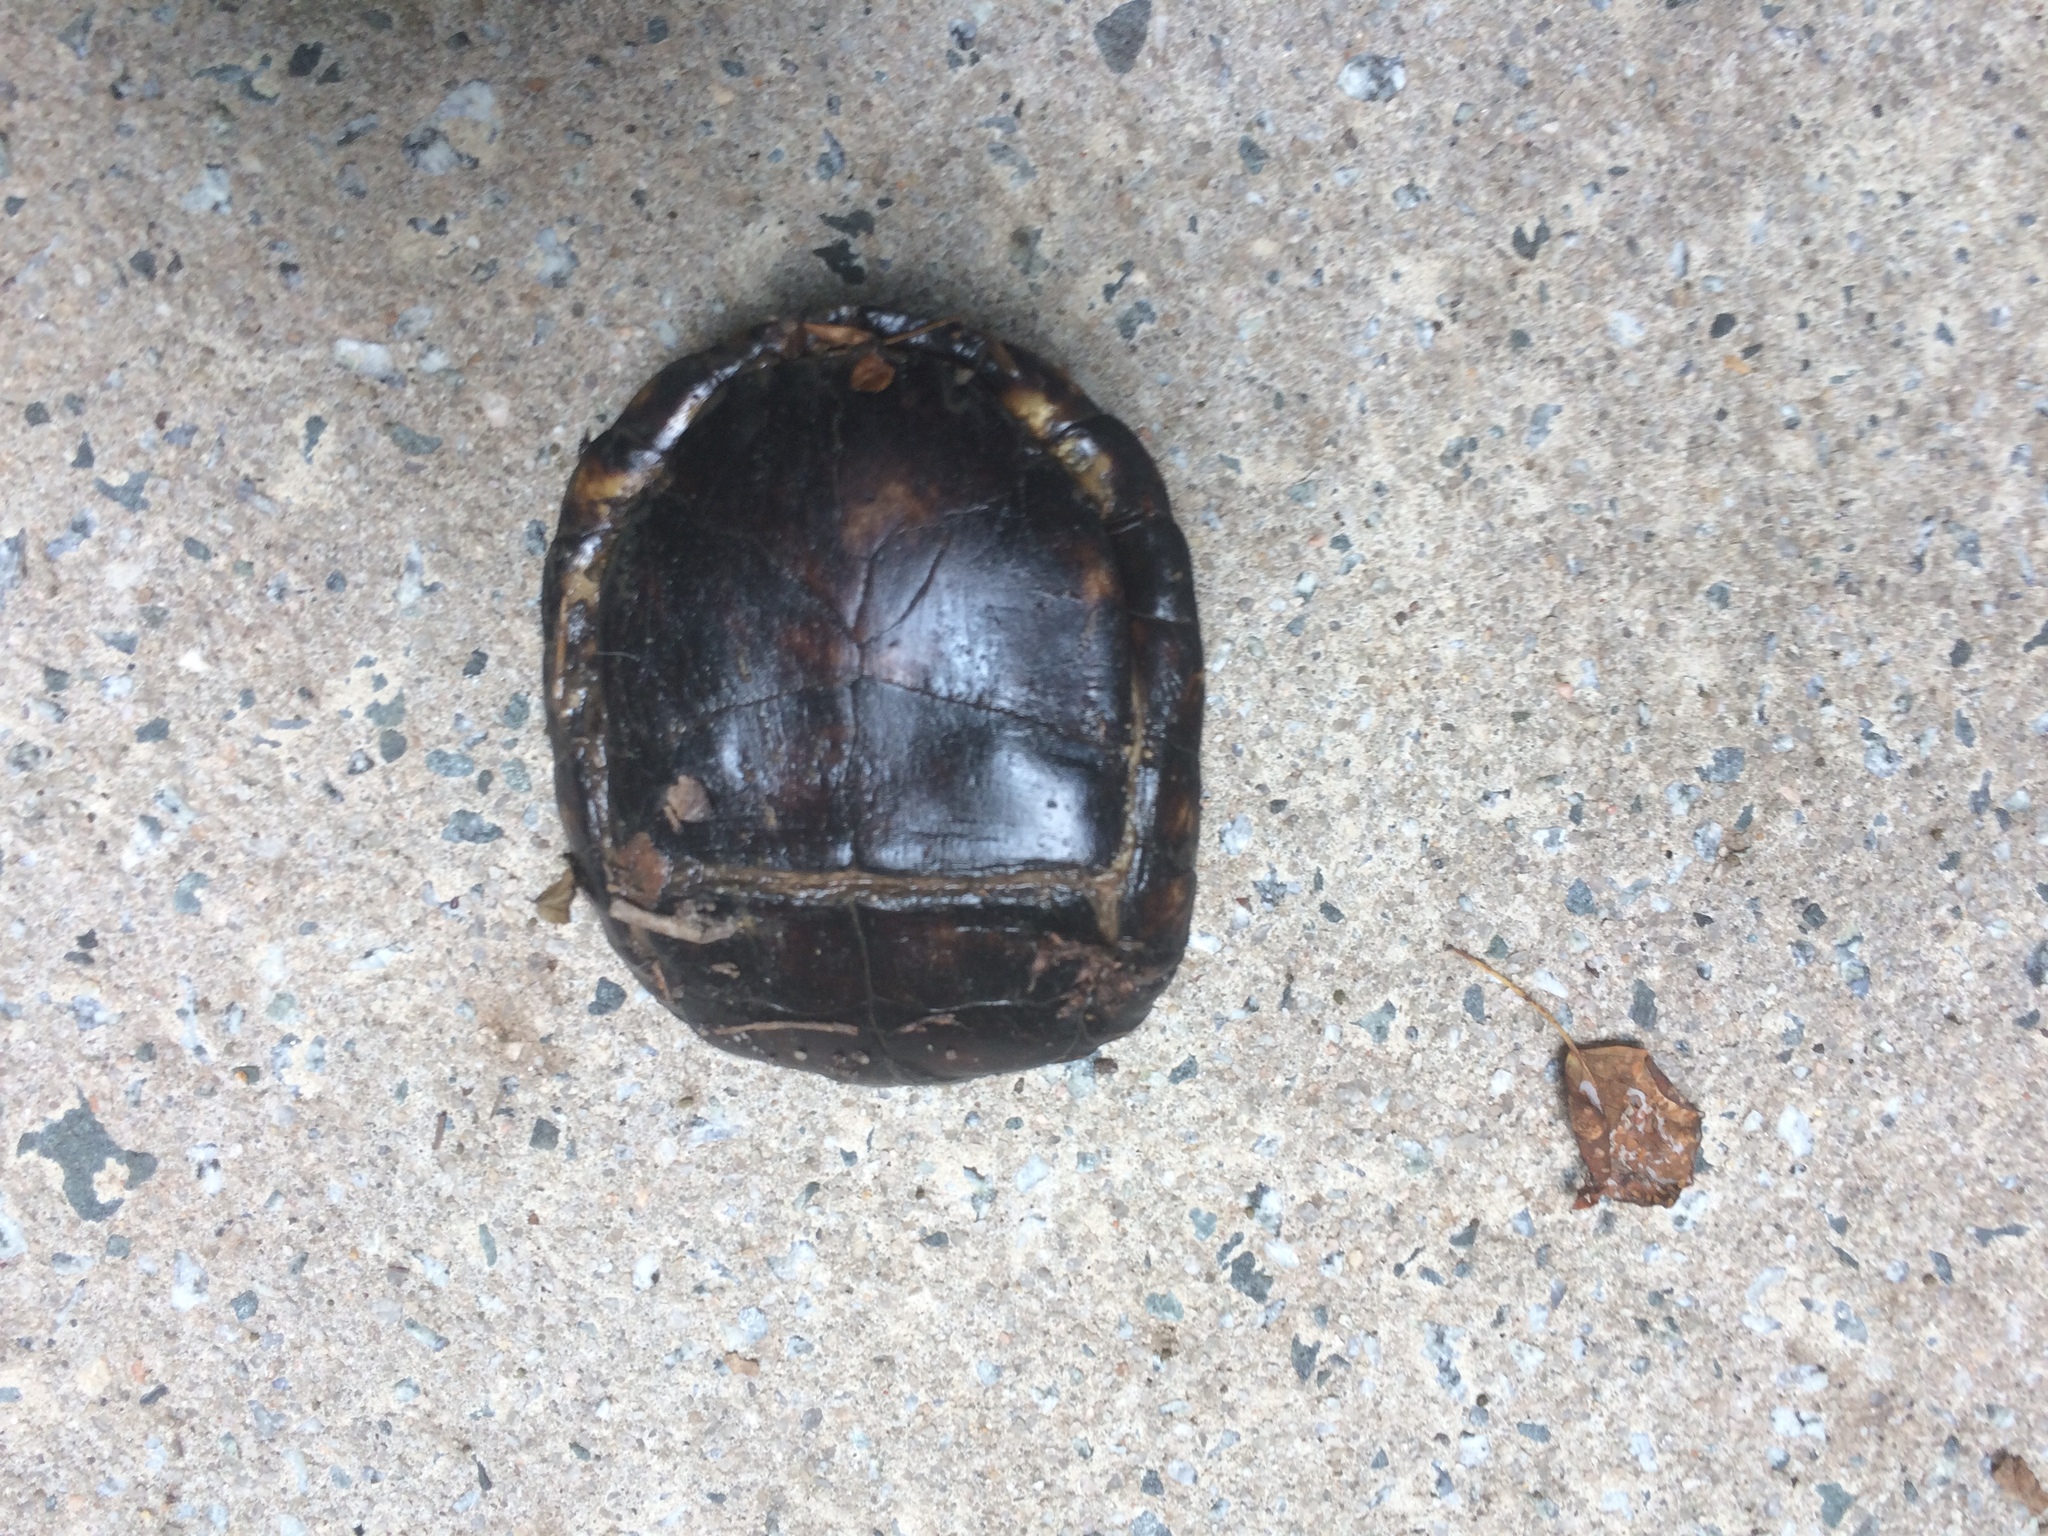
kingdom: Animalia
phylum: Chordata
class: Testudines
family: Emydidae
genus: Terrapene
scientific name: Terrapene carolina
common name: Common box turtle
